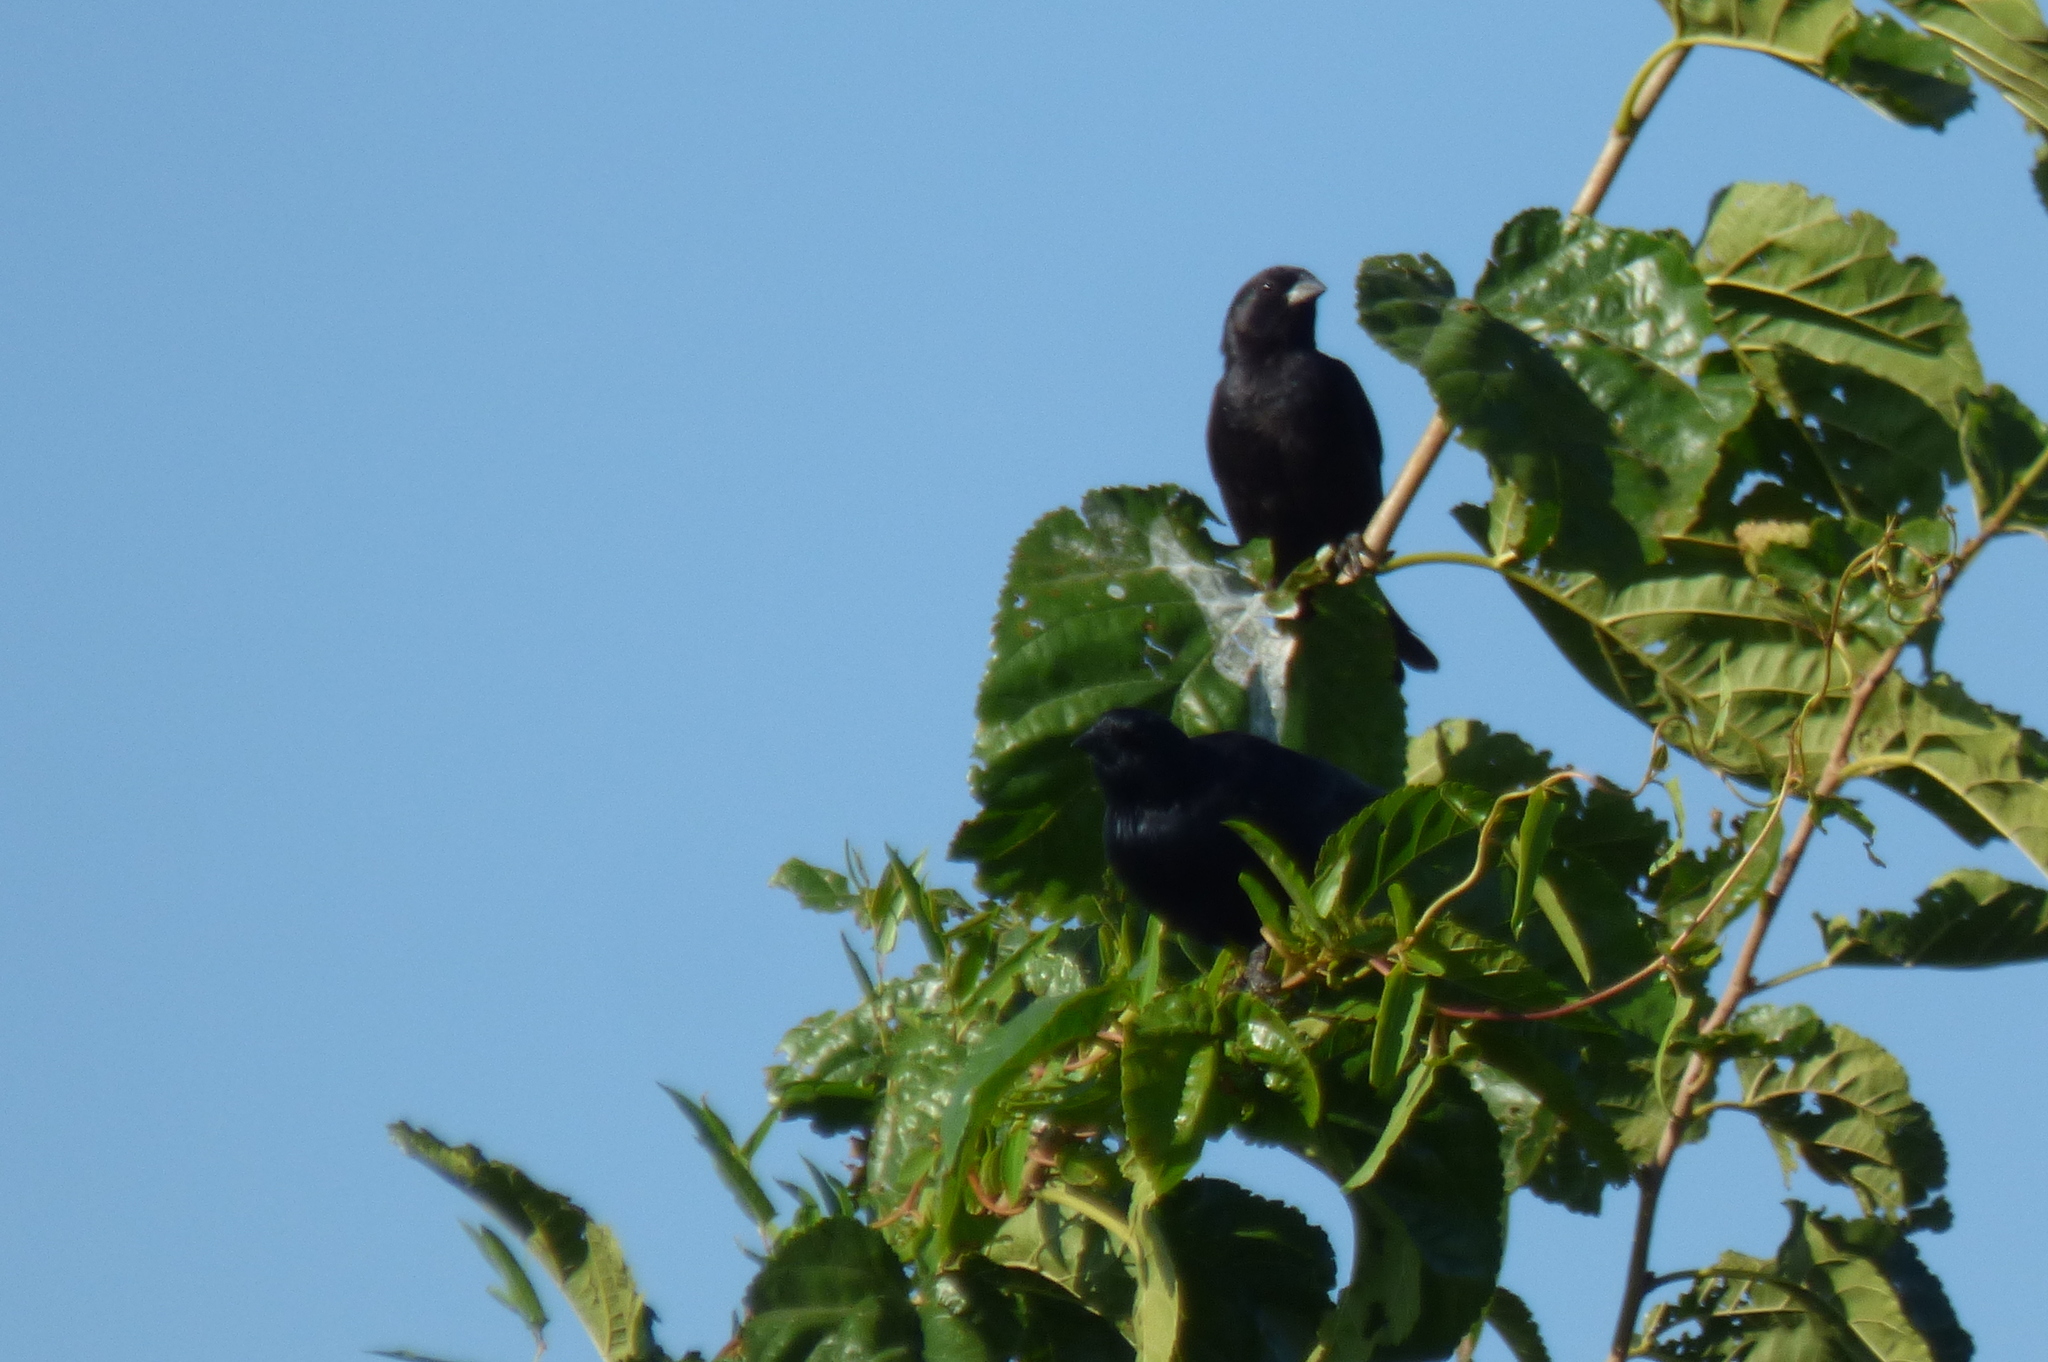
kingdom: Animalia
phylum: Chordata
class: Aves
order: Passeriformes
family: Icteridae
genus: Molothrus
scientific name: Molothrus rufoaxillaris
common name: Screaming cowbird
